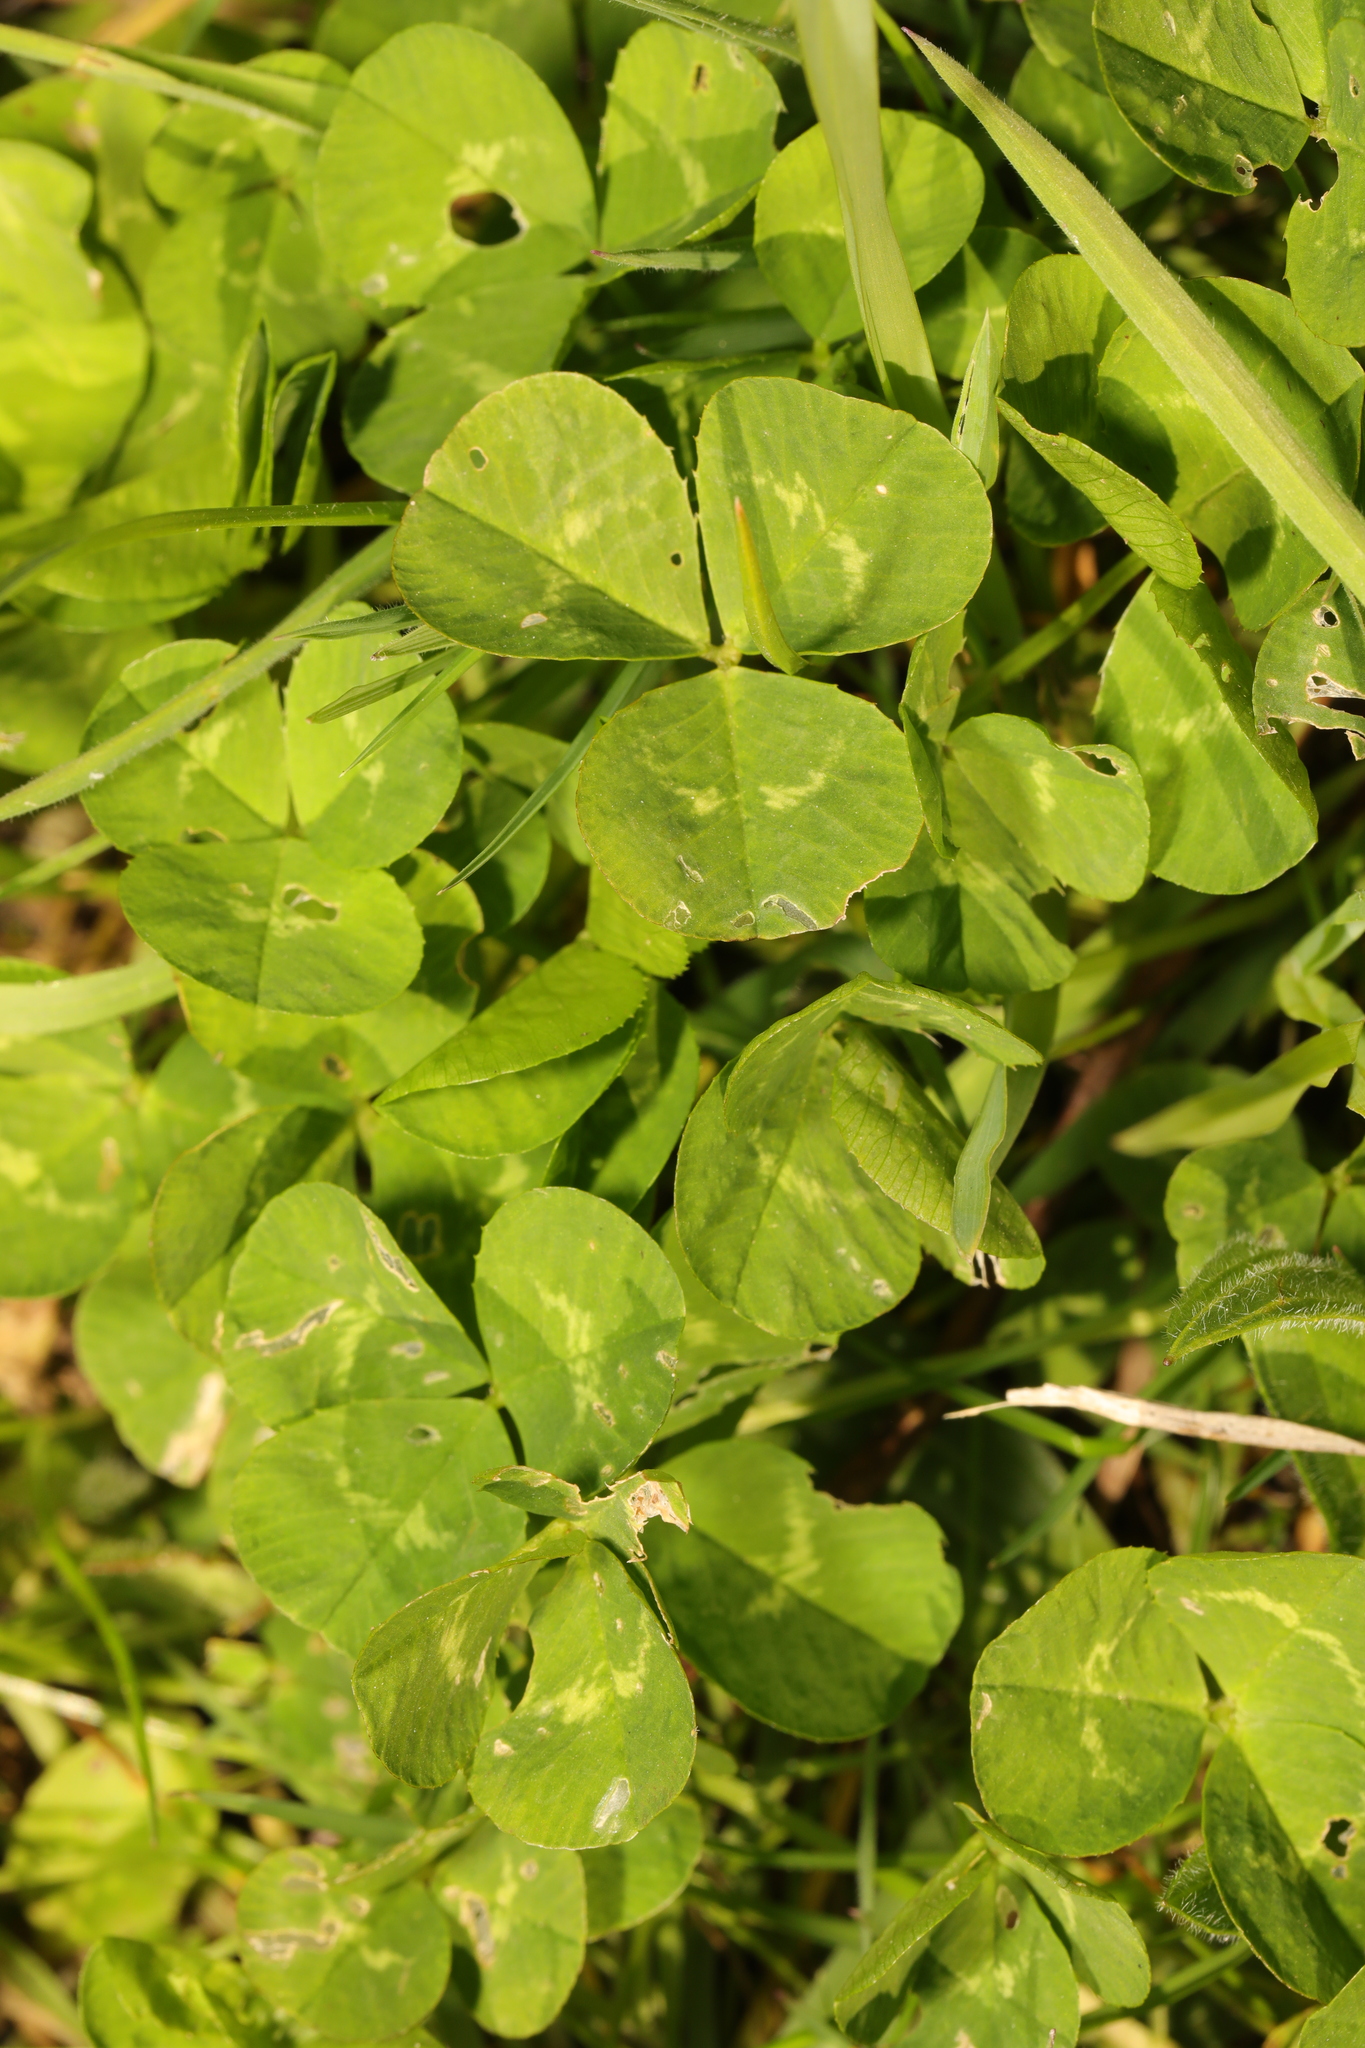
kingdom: Plantae
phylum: Tracheophyta
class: Magnoliopsida
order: Fabales
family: Fabaceae
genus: Trifolium
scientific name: Trifolium repens
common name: White clover
